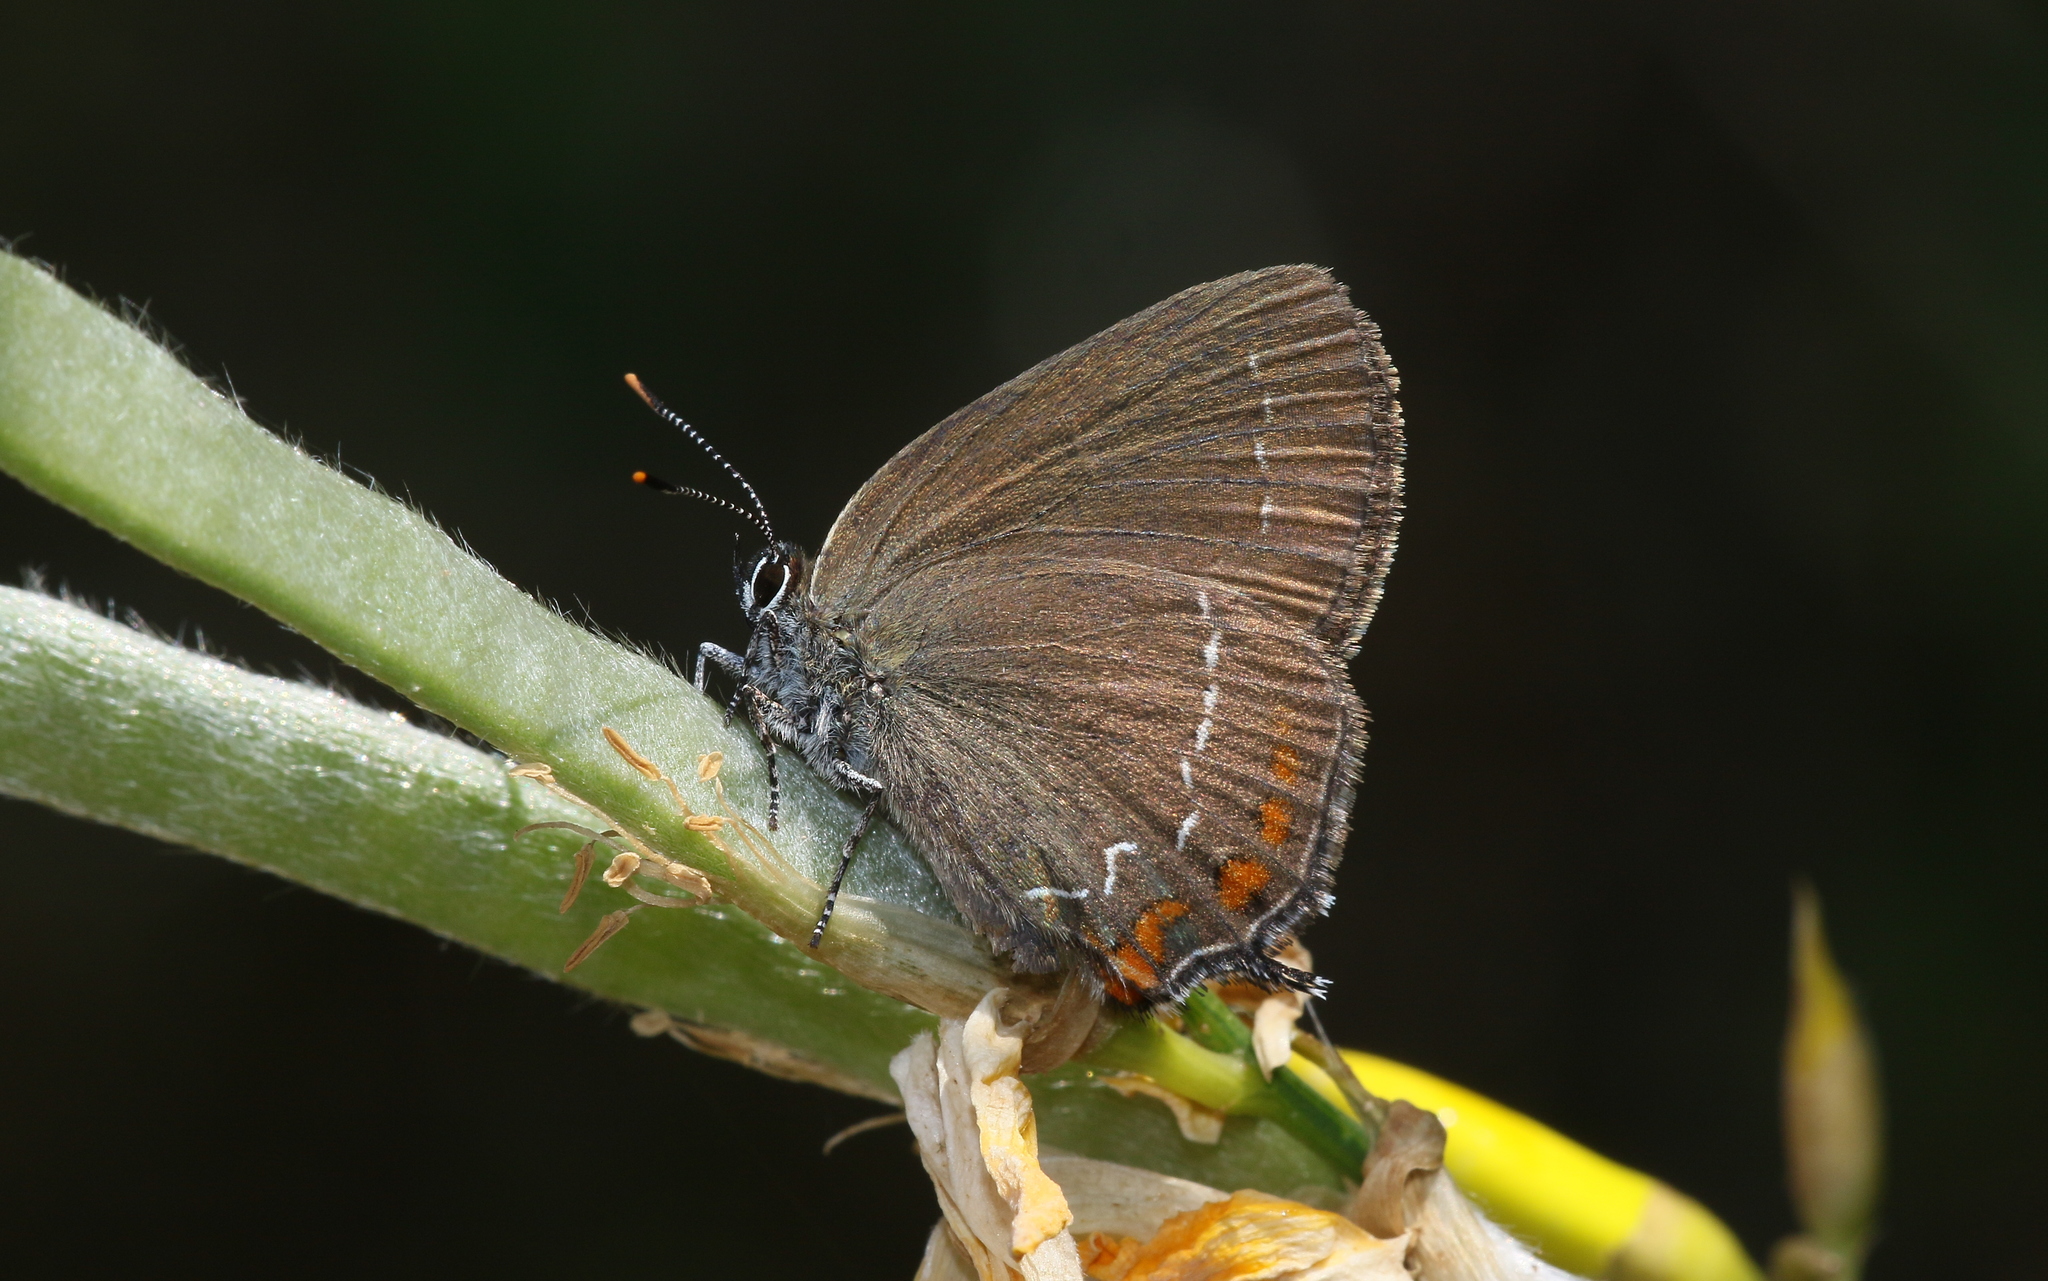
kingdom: Animalia
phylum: Arthropoda
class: Insecta
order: Lepidoptera
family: Lycaenidae
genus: Nordmannia
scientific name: Nordmannia ilicis
